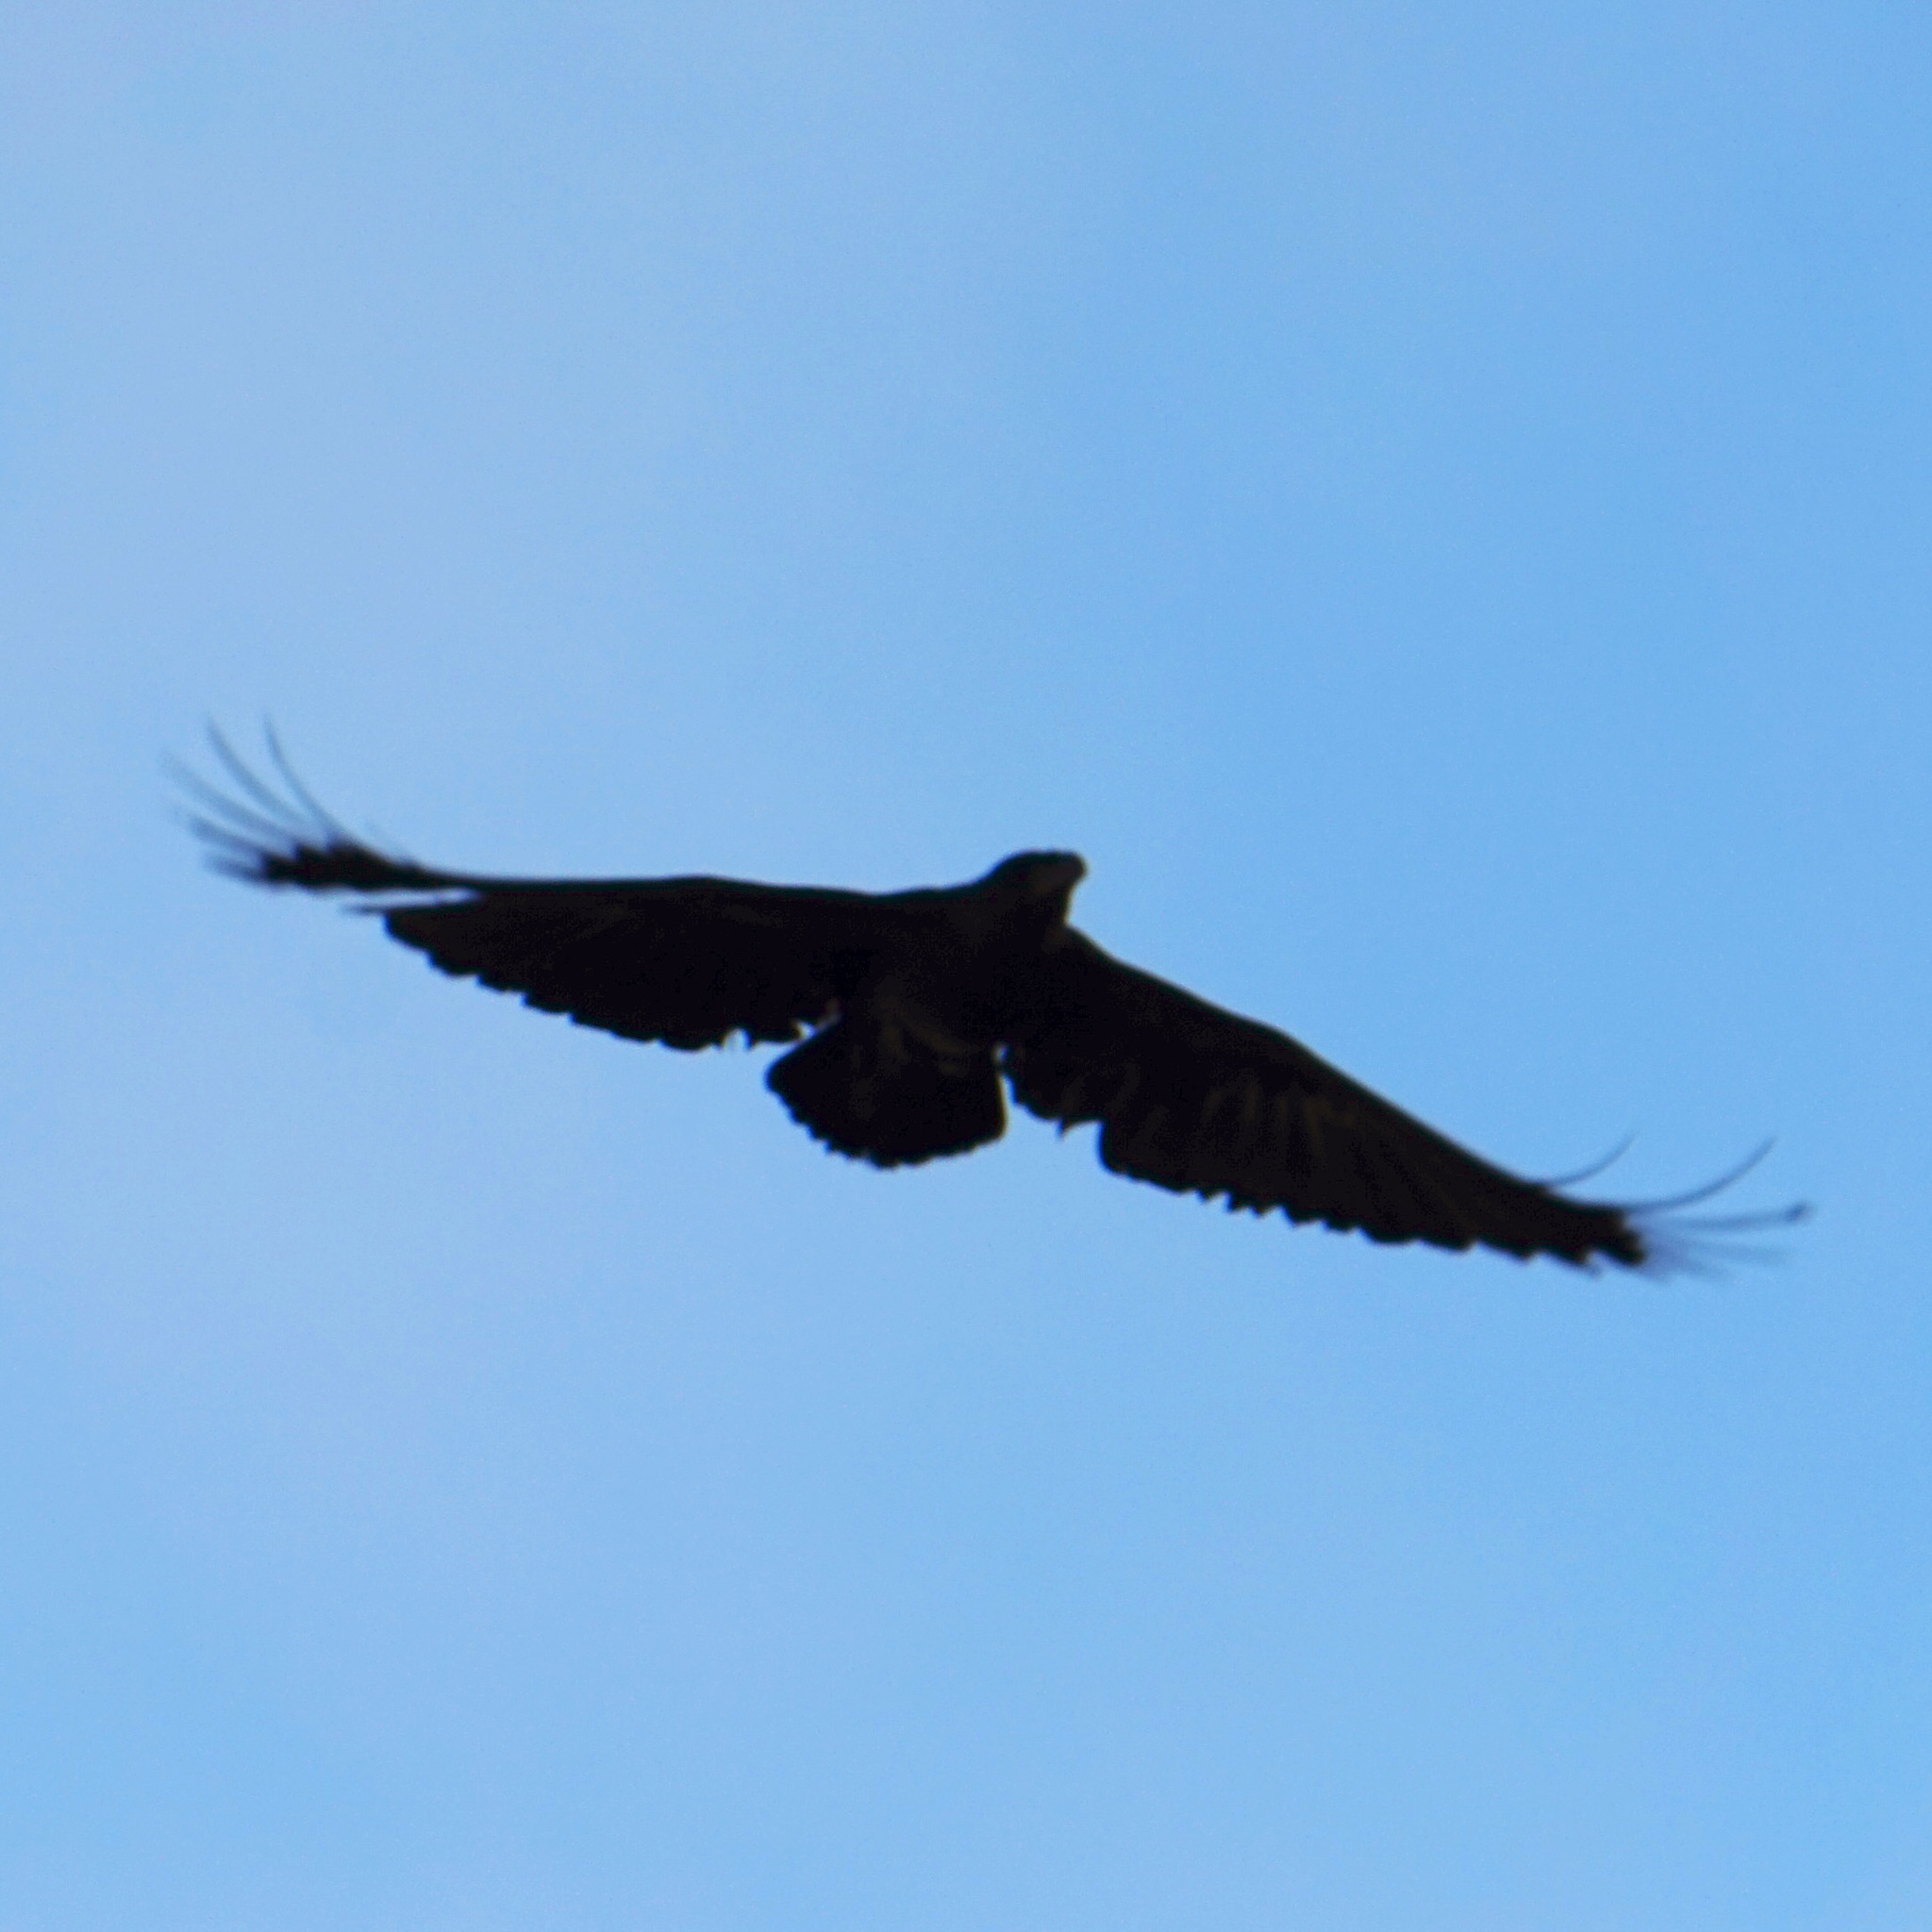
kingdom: Animalia
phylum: Chordata
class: Aves
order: Passeriformes
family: Corvidae
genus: Corvus
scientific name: Corvus rhipidurus
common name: Fan-tailed raven
